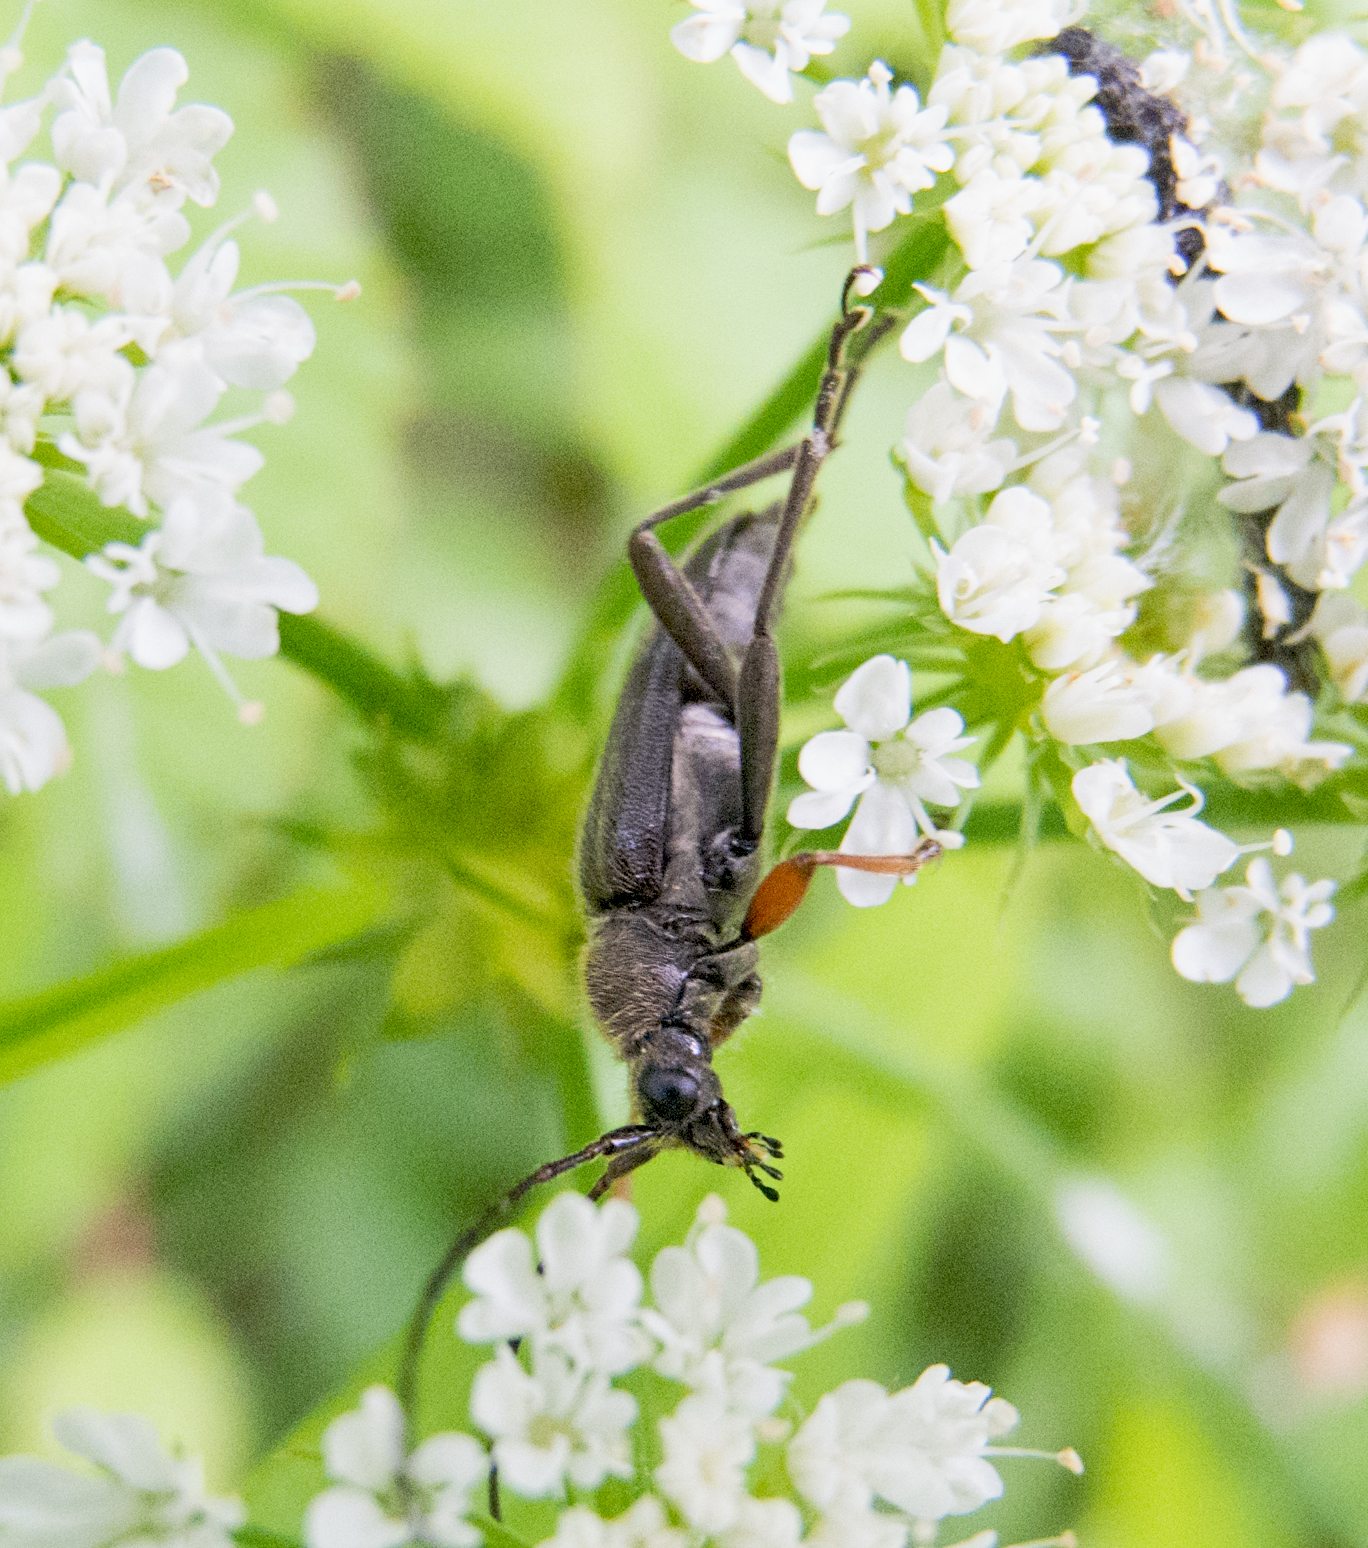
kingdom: Animalia
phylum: Arthropoda
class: Insecta
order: Coleoptera
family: Cerambycidae
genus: Cortodera
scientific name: Cortodera flavimana
